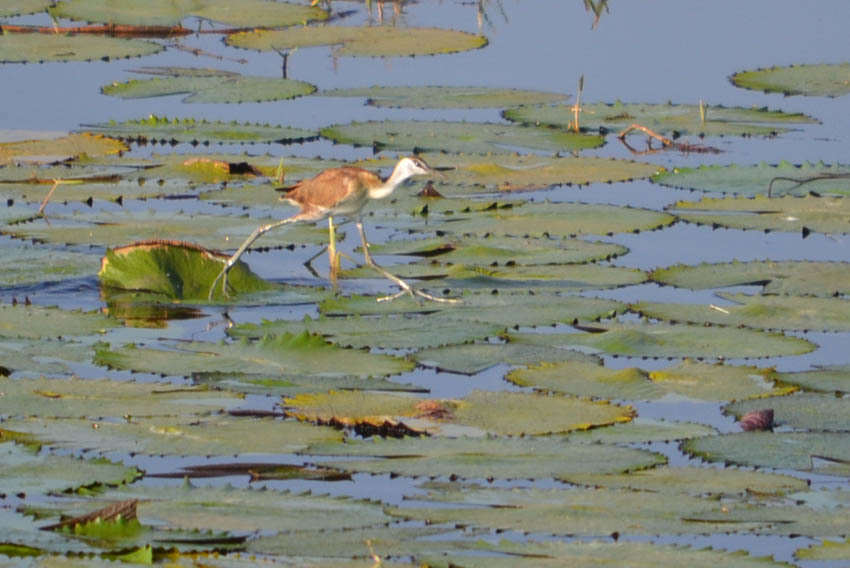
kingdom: Animalia
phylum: Chordata
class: Aves
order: Charadriiformes
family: Jacanidae
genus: Actophilornis
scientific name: Actophilornis africanus
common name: African jacana
